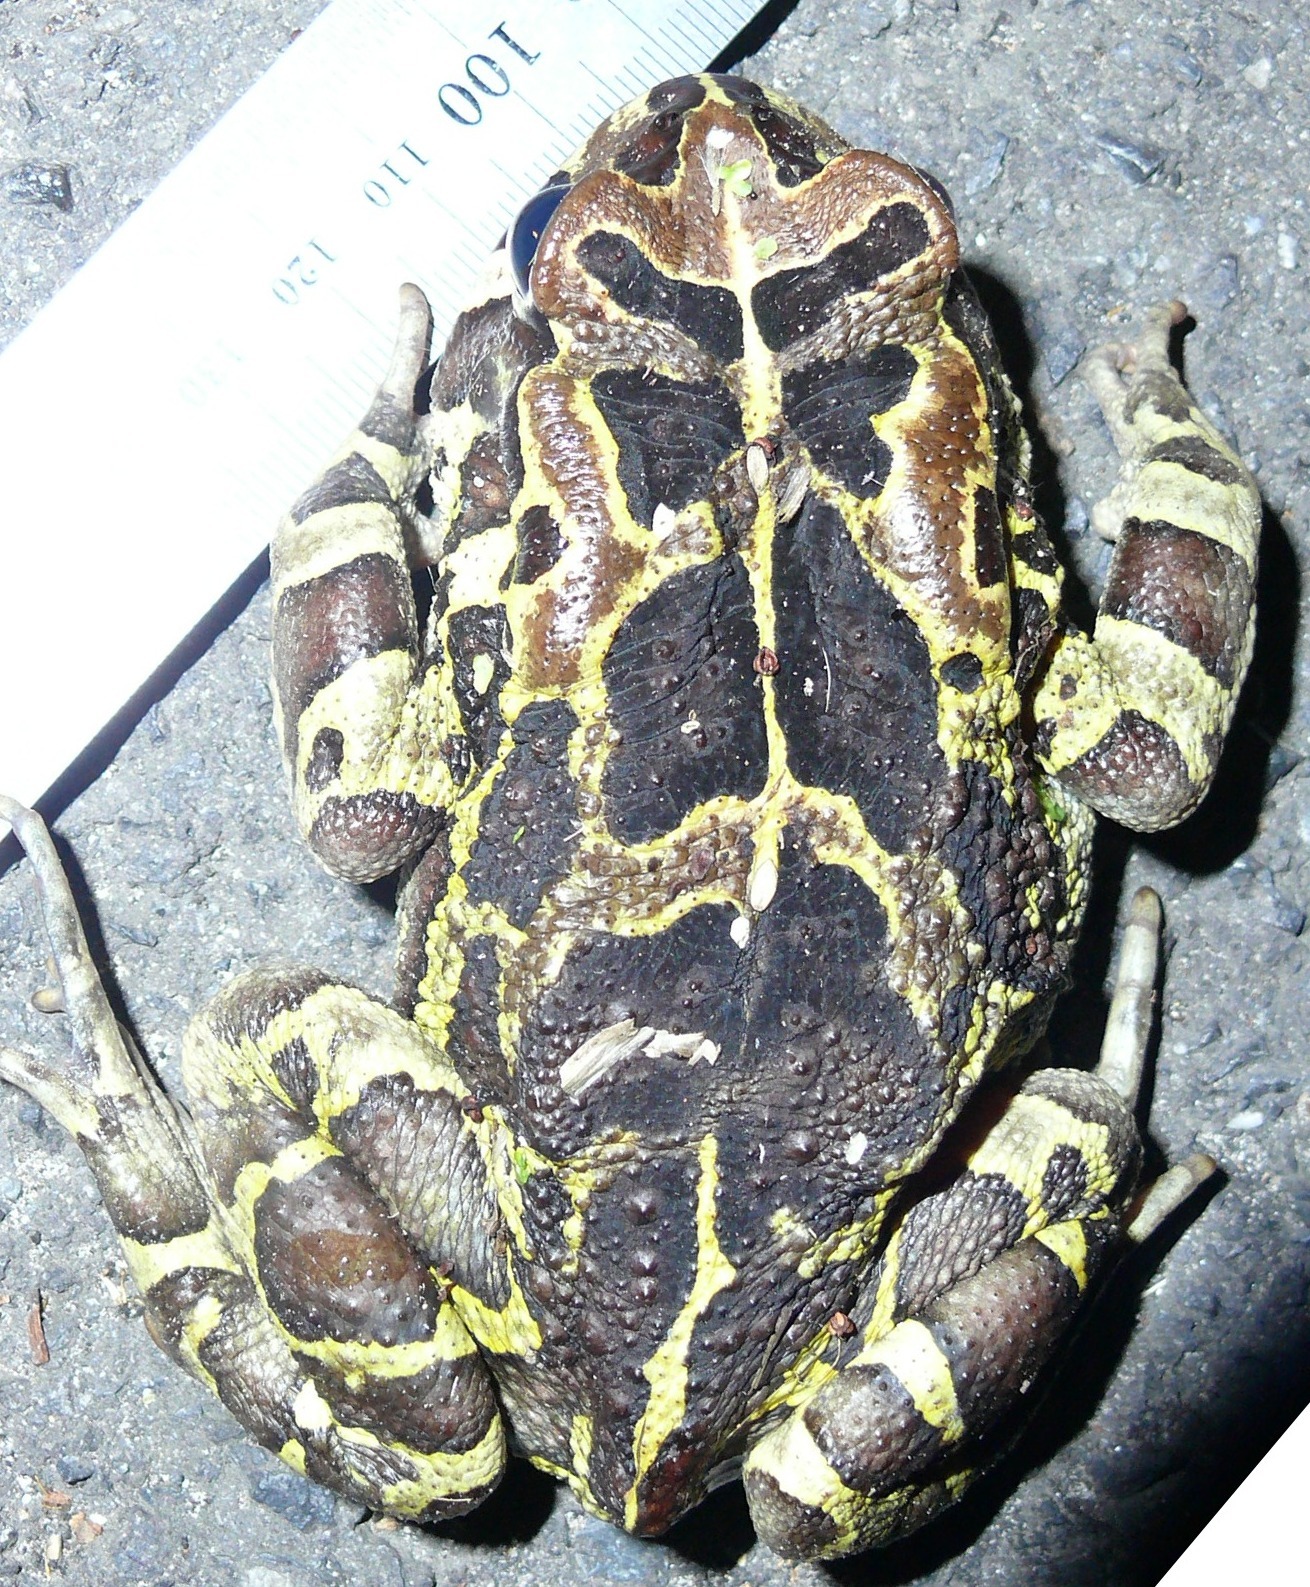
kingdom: Animalia
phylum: Chordata
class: Amphibia
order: Anura
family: Bufonidae
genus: Sclerophrys
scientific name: Sclerophrys pantherina
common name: Panther toad
